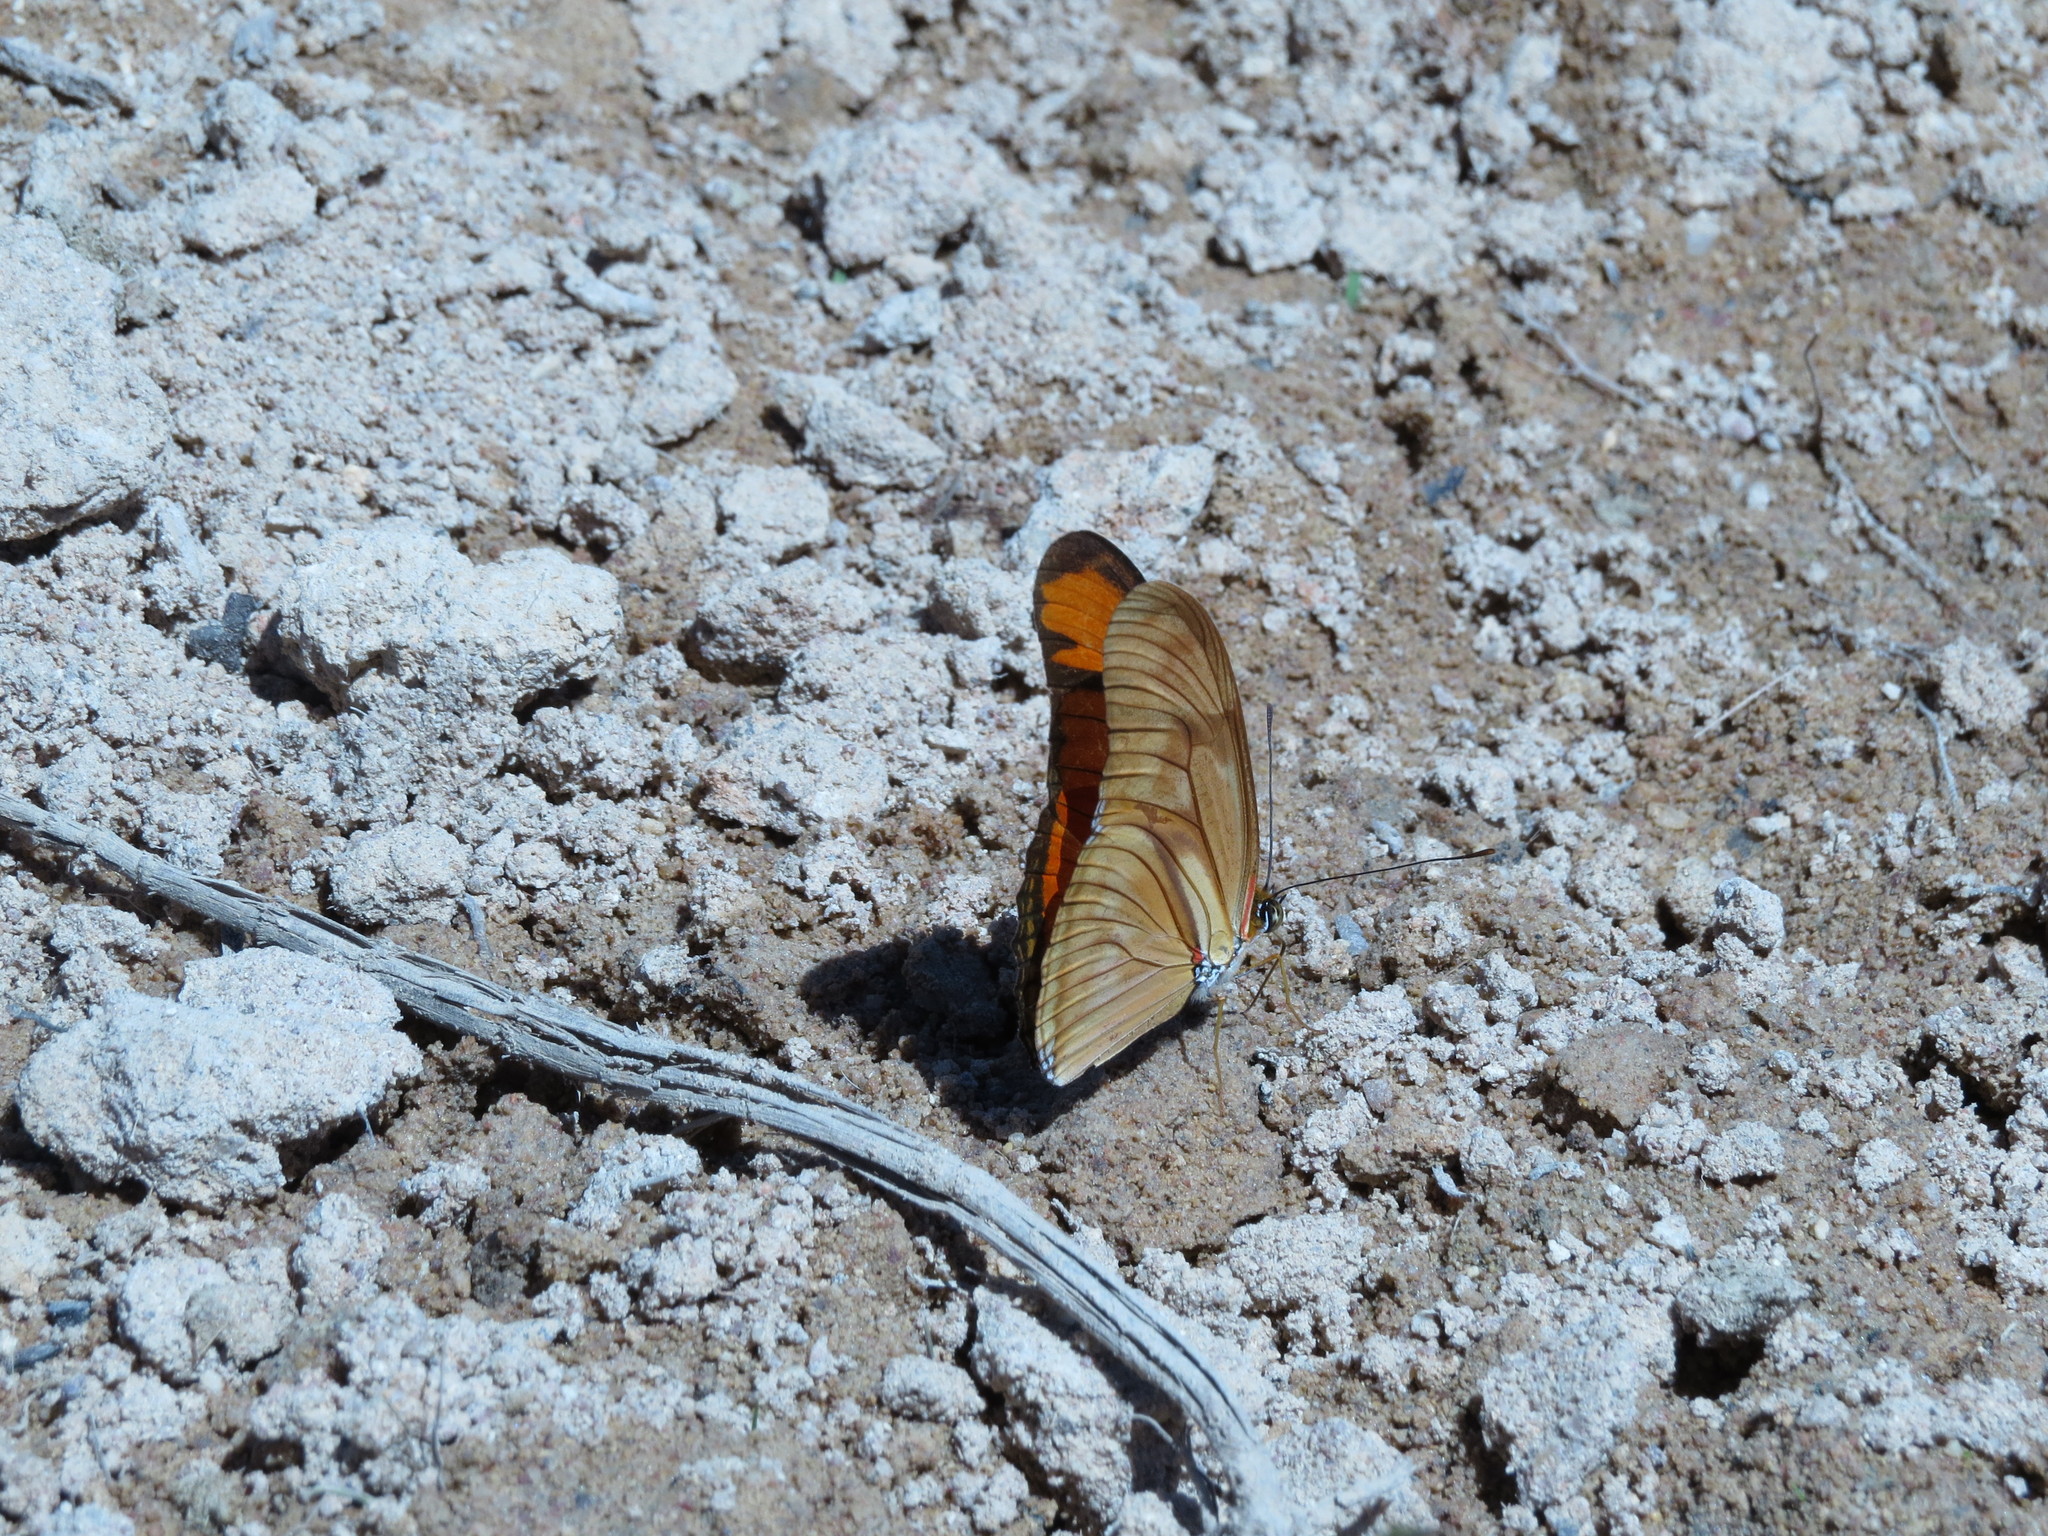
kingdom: Animalia
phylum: Arthropoda
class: Insecta
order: Lepidoptera
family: Nymphalidae
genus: Dryas
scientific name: Dryas iulia
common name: Flambeau
